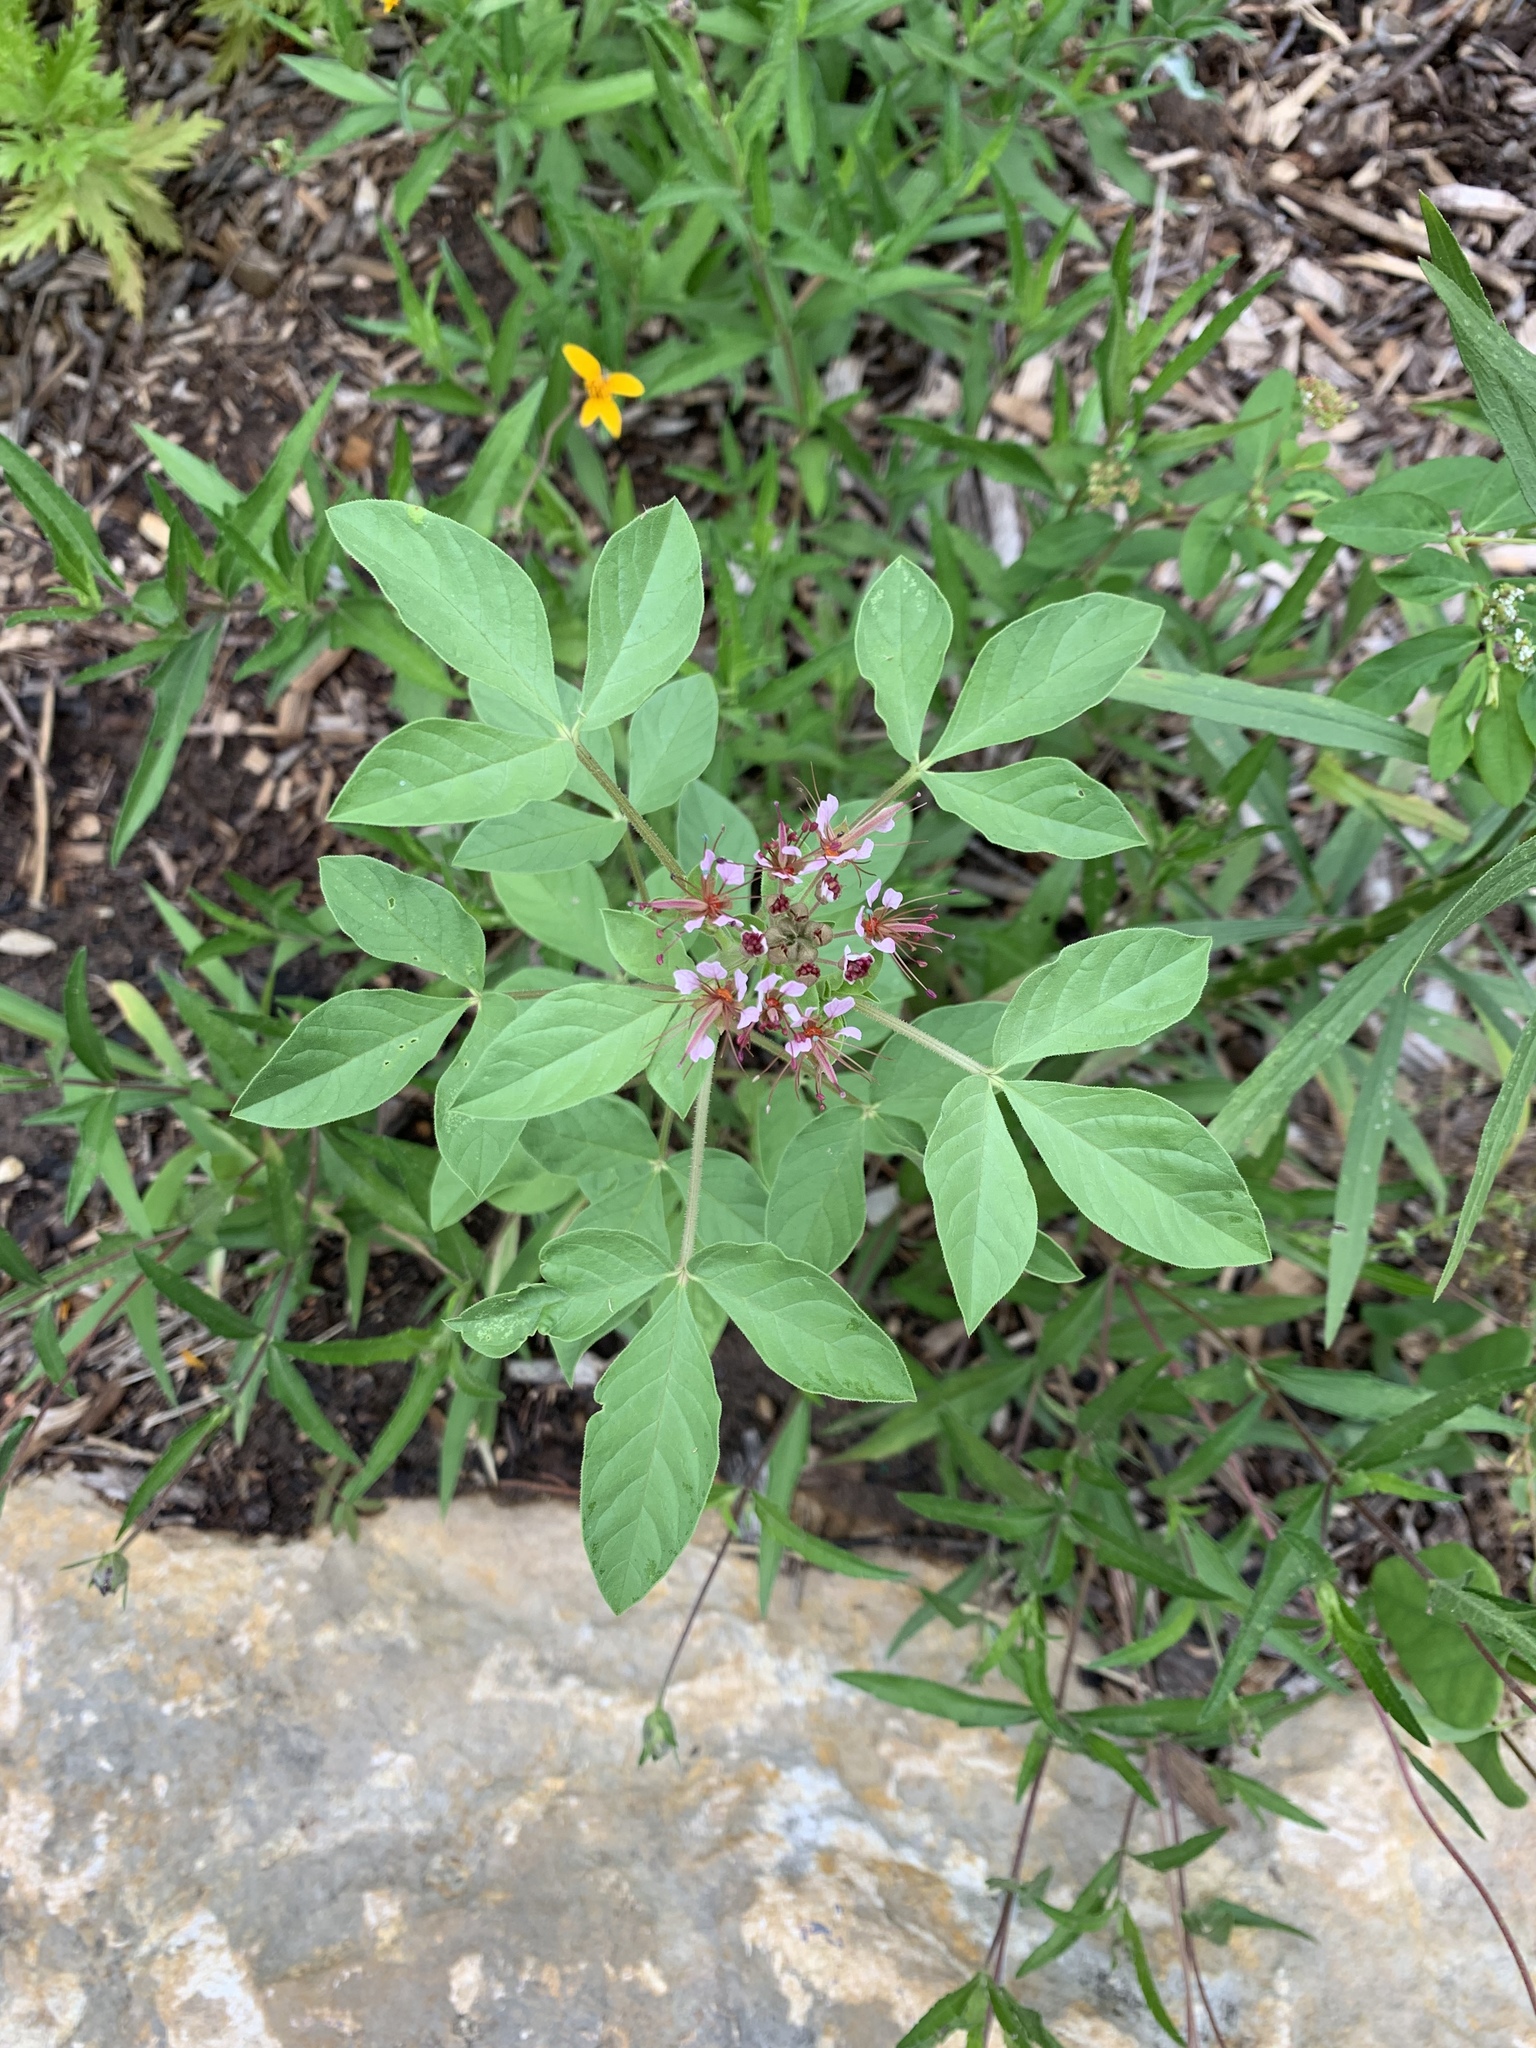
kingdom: Plantae
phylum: Tracheophyta
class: Magnoliopsida
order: Brassicales
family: Cleomaceae
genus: Polanisia
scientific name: Polanisia dodecandra
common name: Clammyweed
